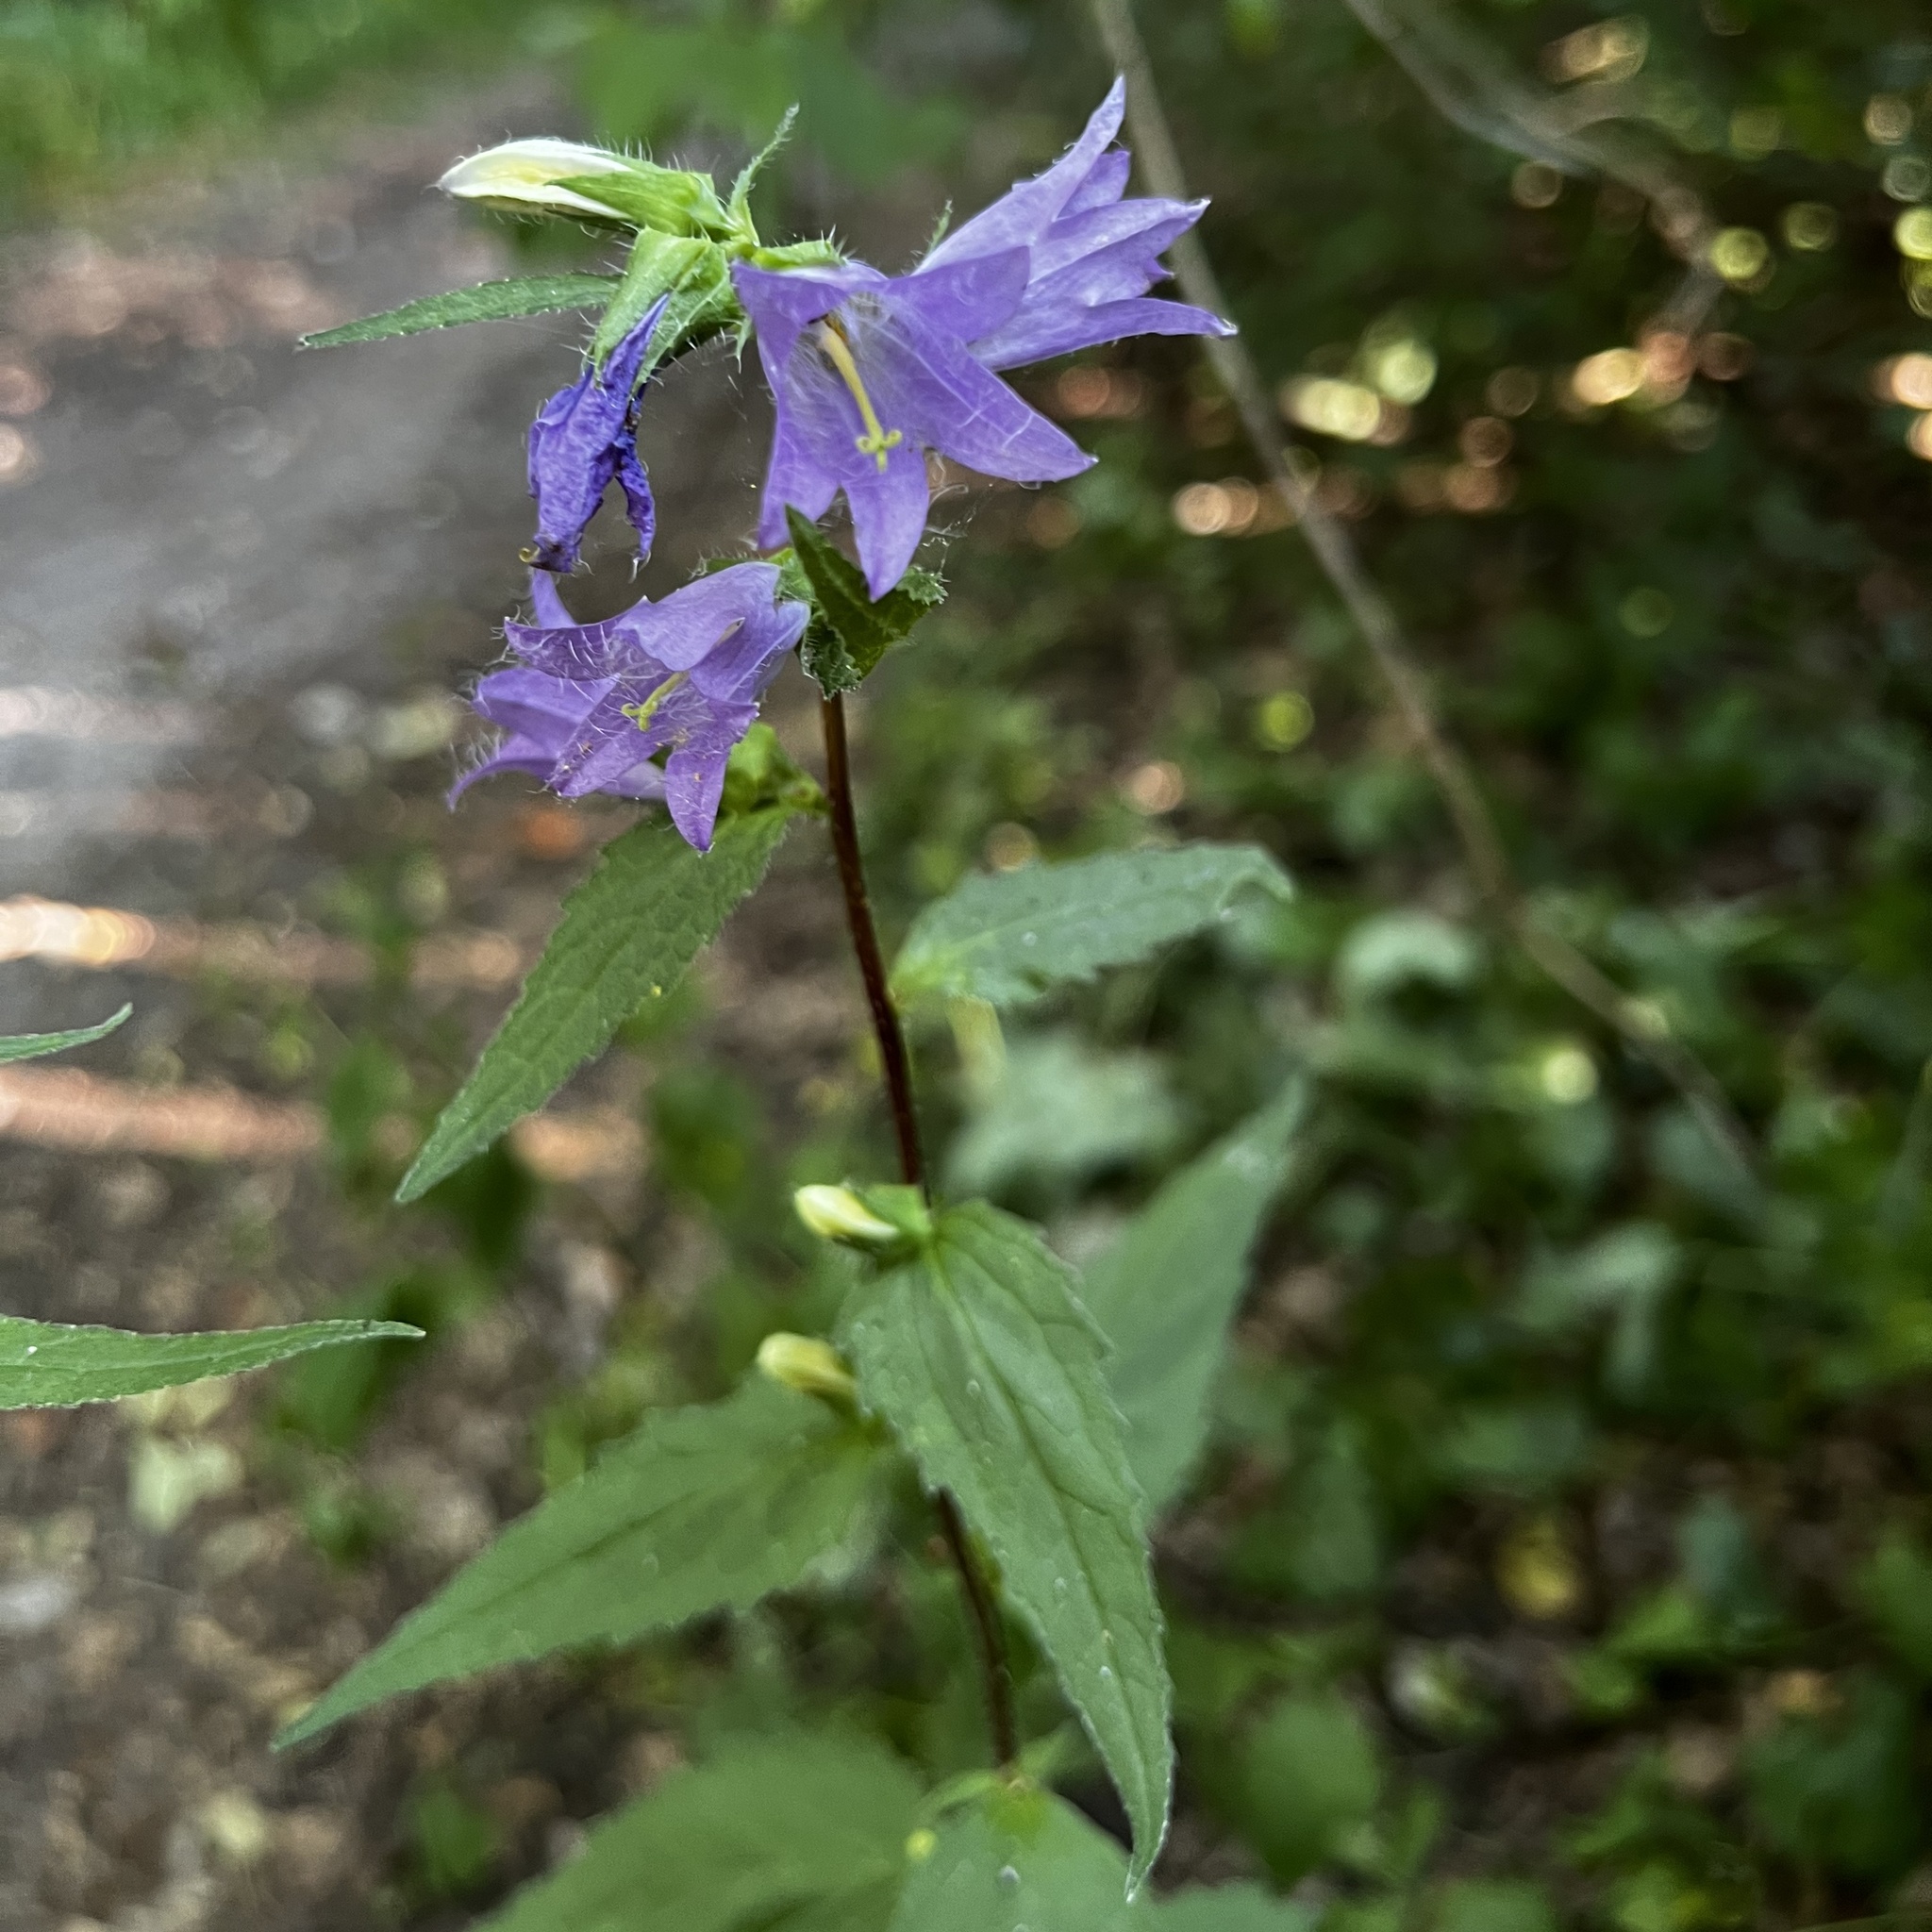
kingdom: Plantae
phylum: Tracheophyta
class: Magnoliopsida
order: Asterales
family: Campanulaceae
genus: Campanula
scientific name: Campanula trachelium
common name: Nettle-leaved bellflower
